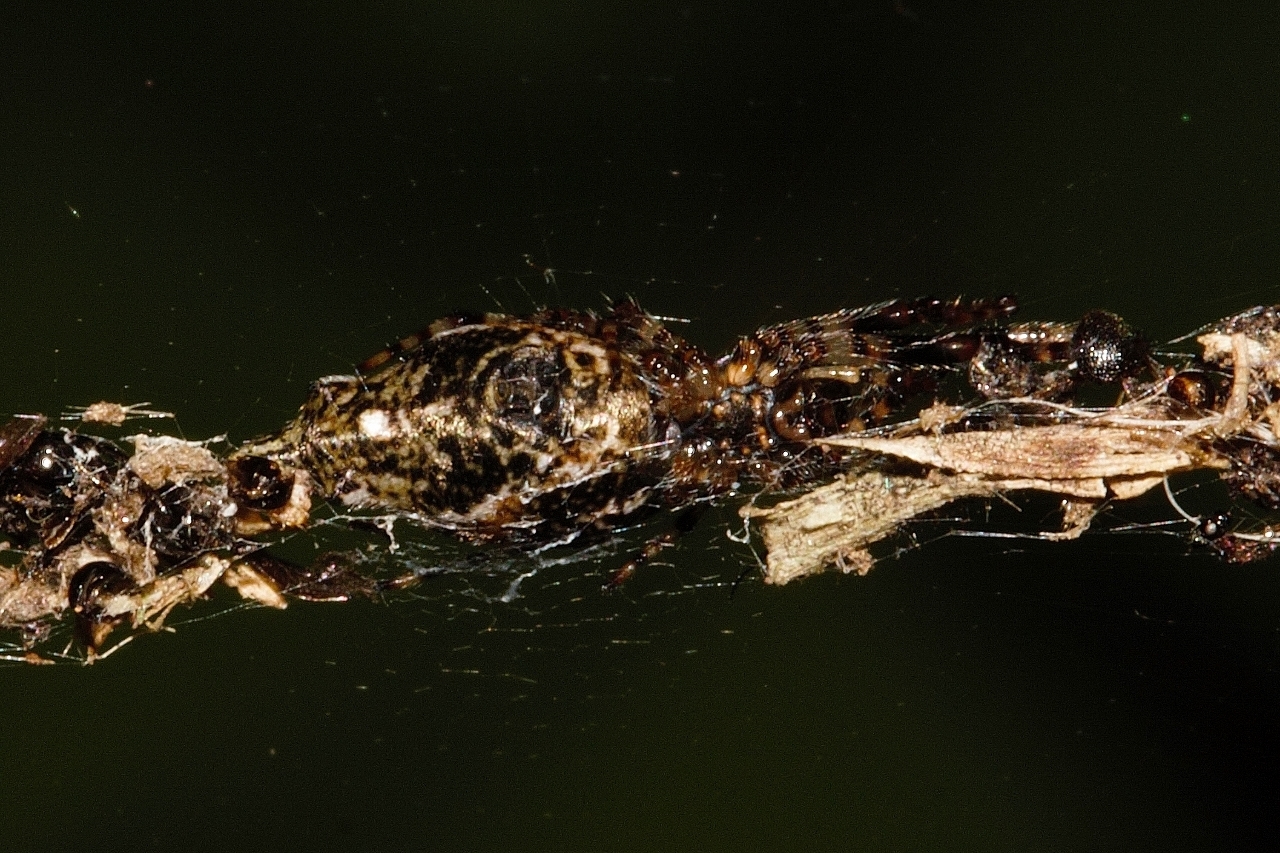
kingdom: Animalia
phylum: Arthropoda
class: Arachnida
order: Araneae
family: Araneidae
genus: Cyclosa
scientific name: Cyclosa insulana
